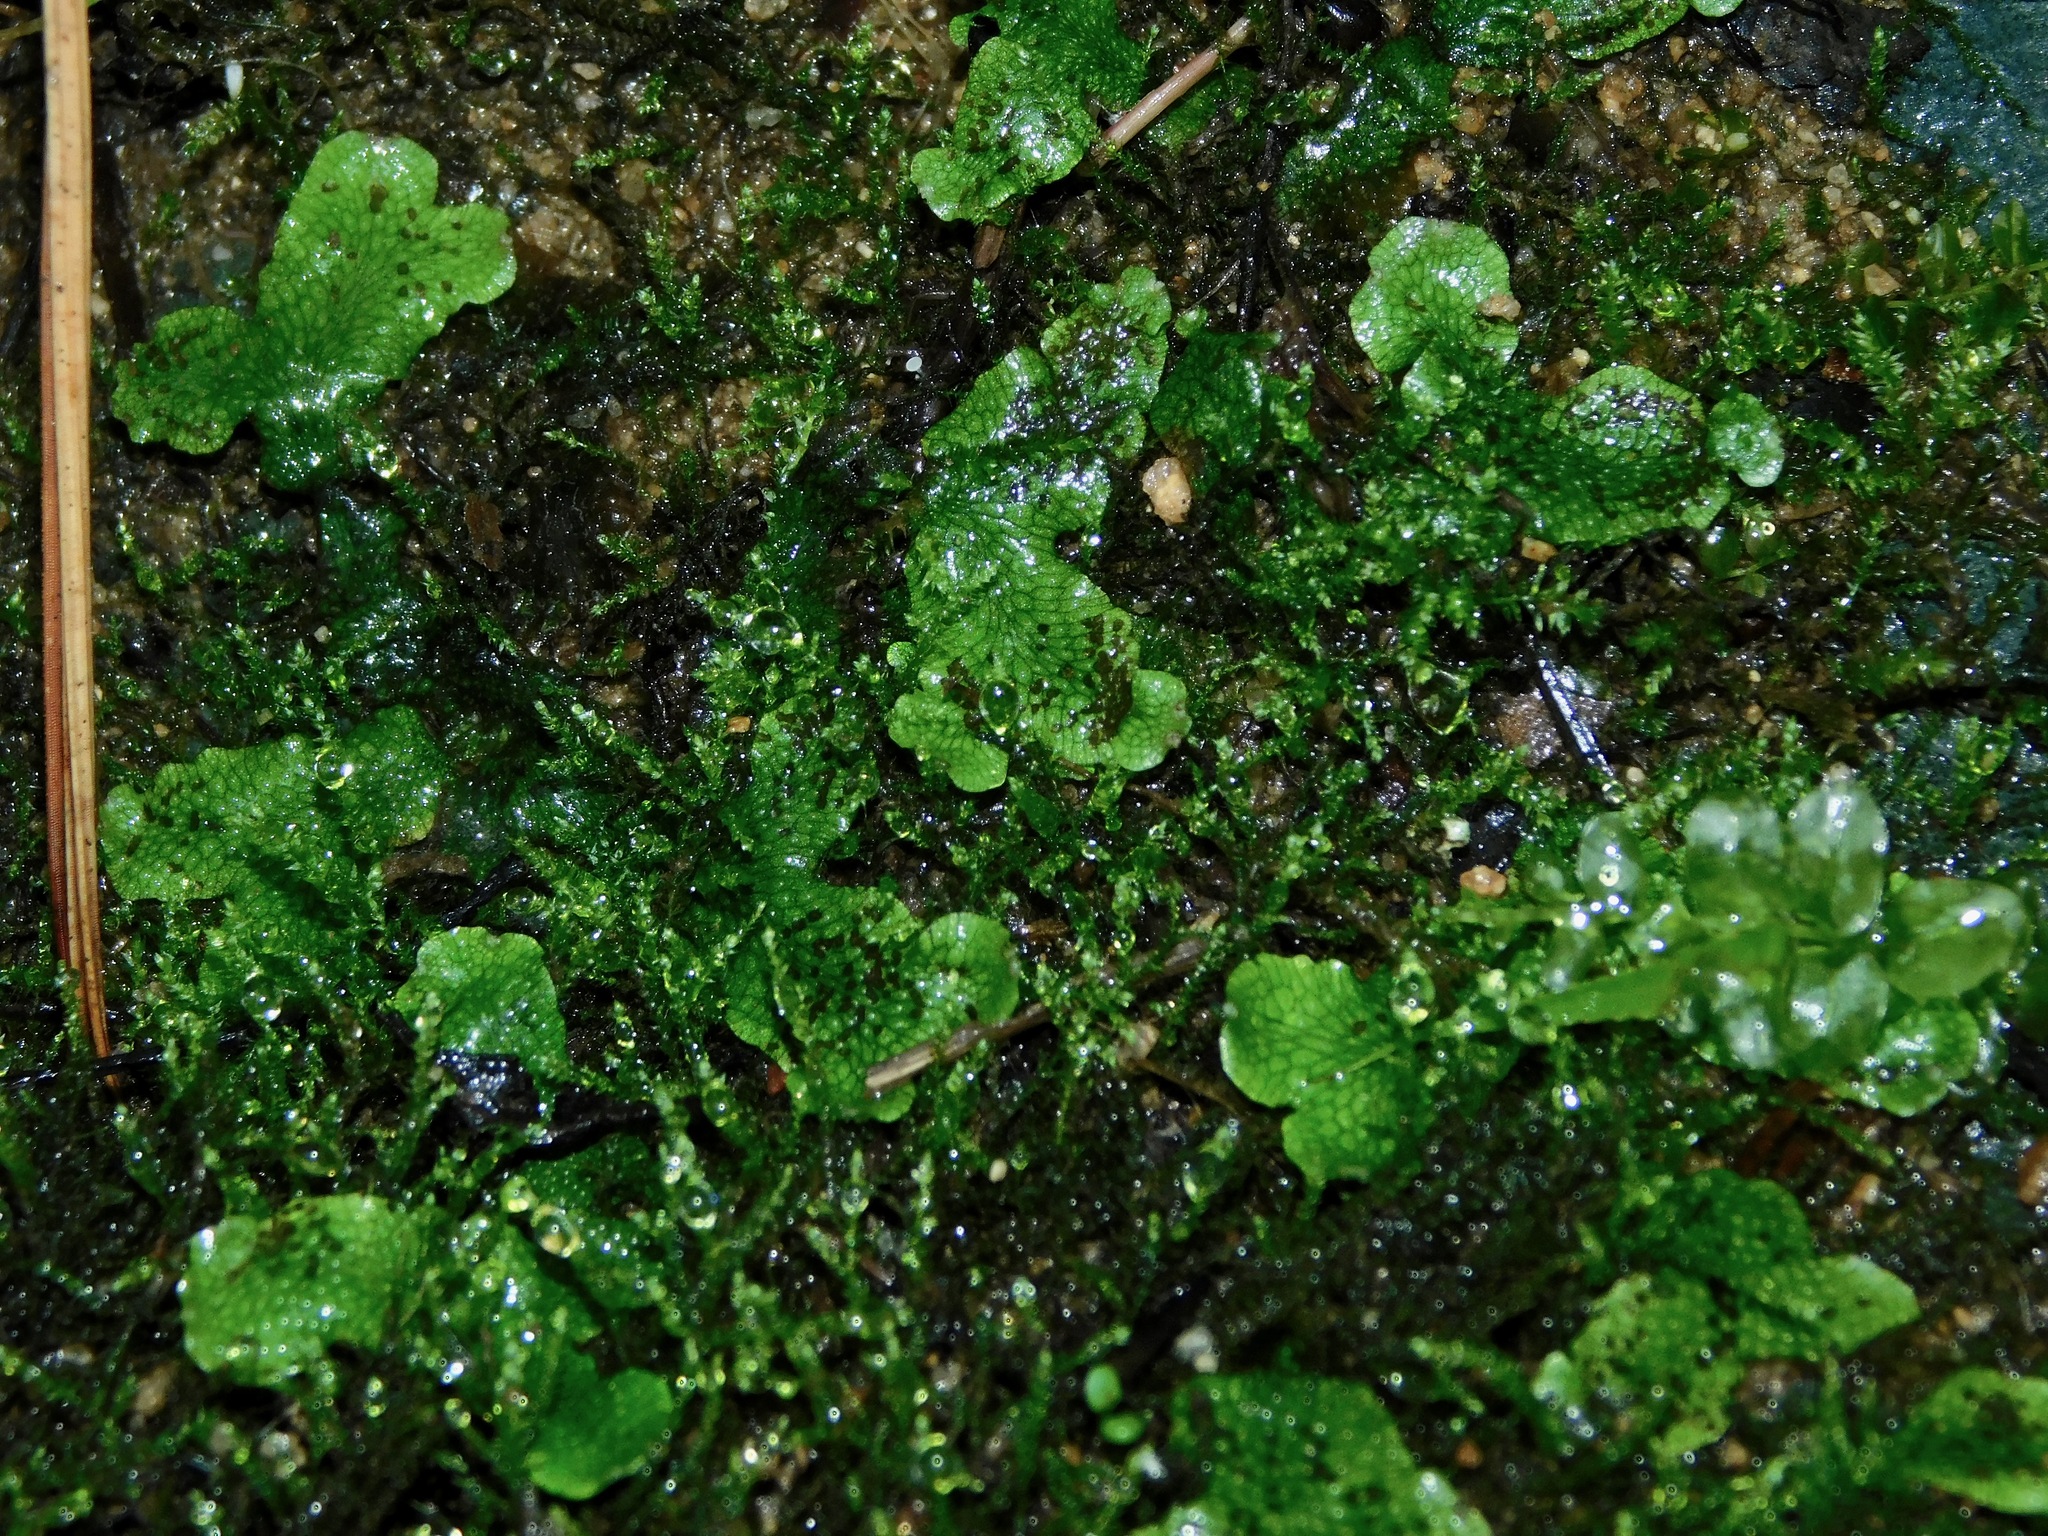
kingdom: Plantae
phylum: Marchantiophyta
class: Marchantiopsida
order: Marchantiales
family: Conocephalaceae
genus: Conocephalum
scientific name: Conocephalum salebrosum
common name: Cat-tongue liverwort
